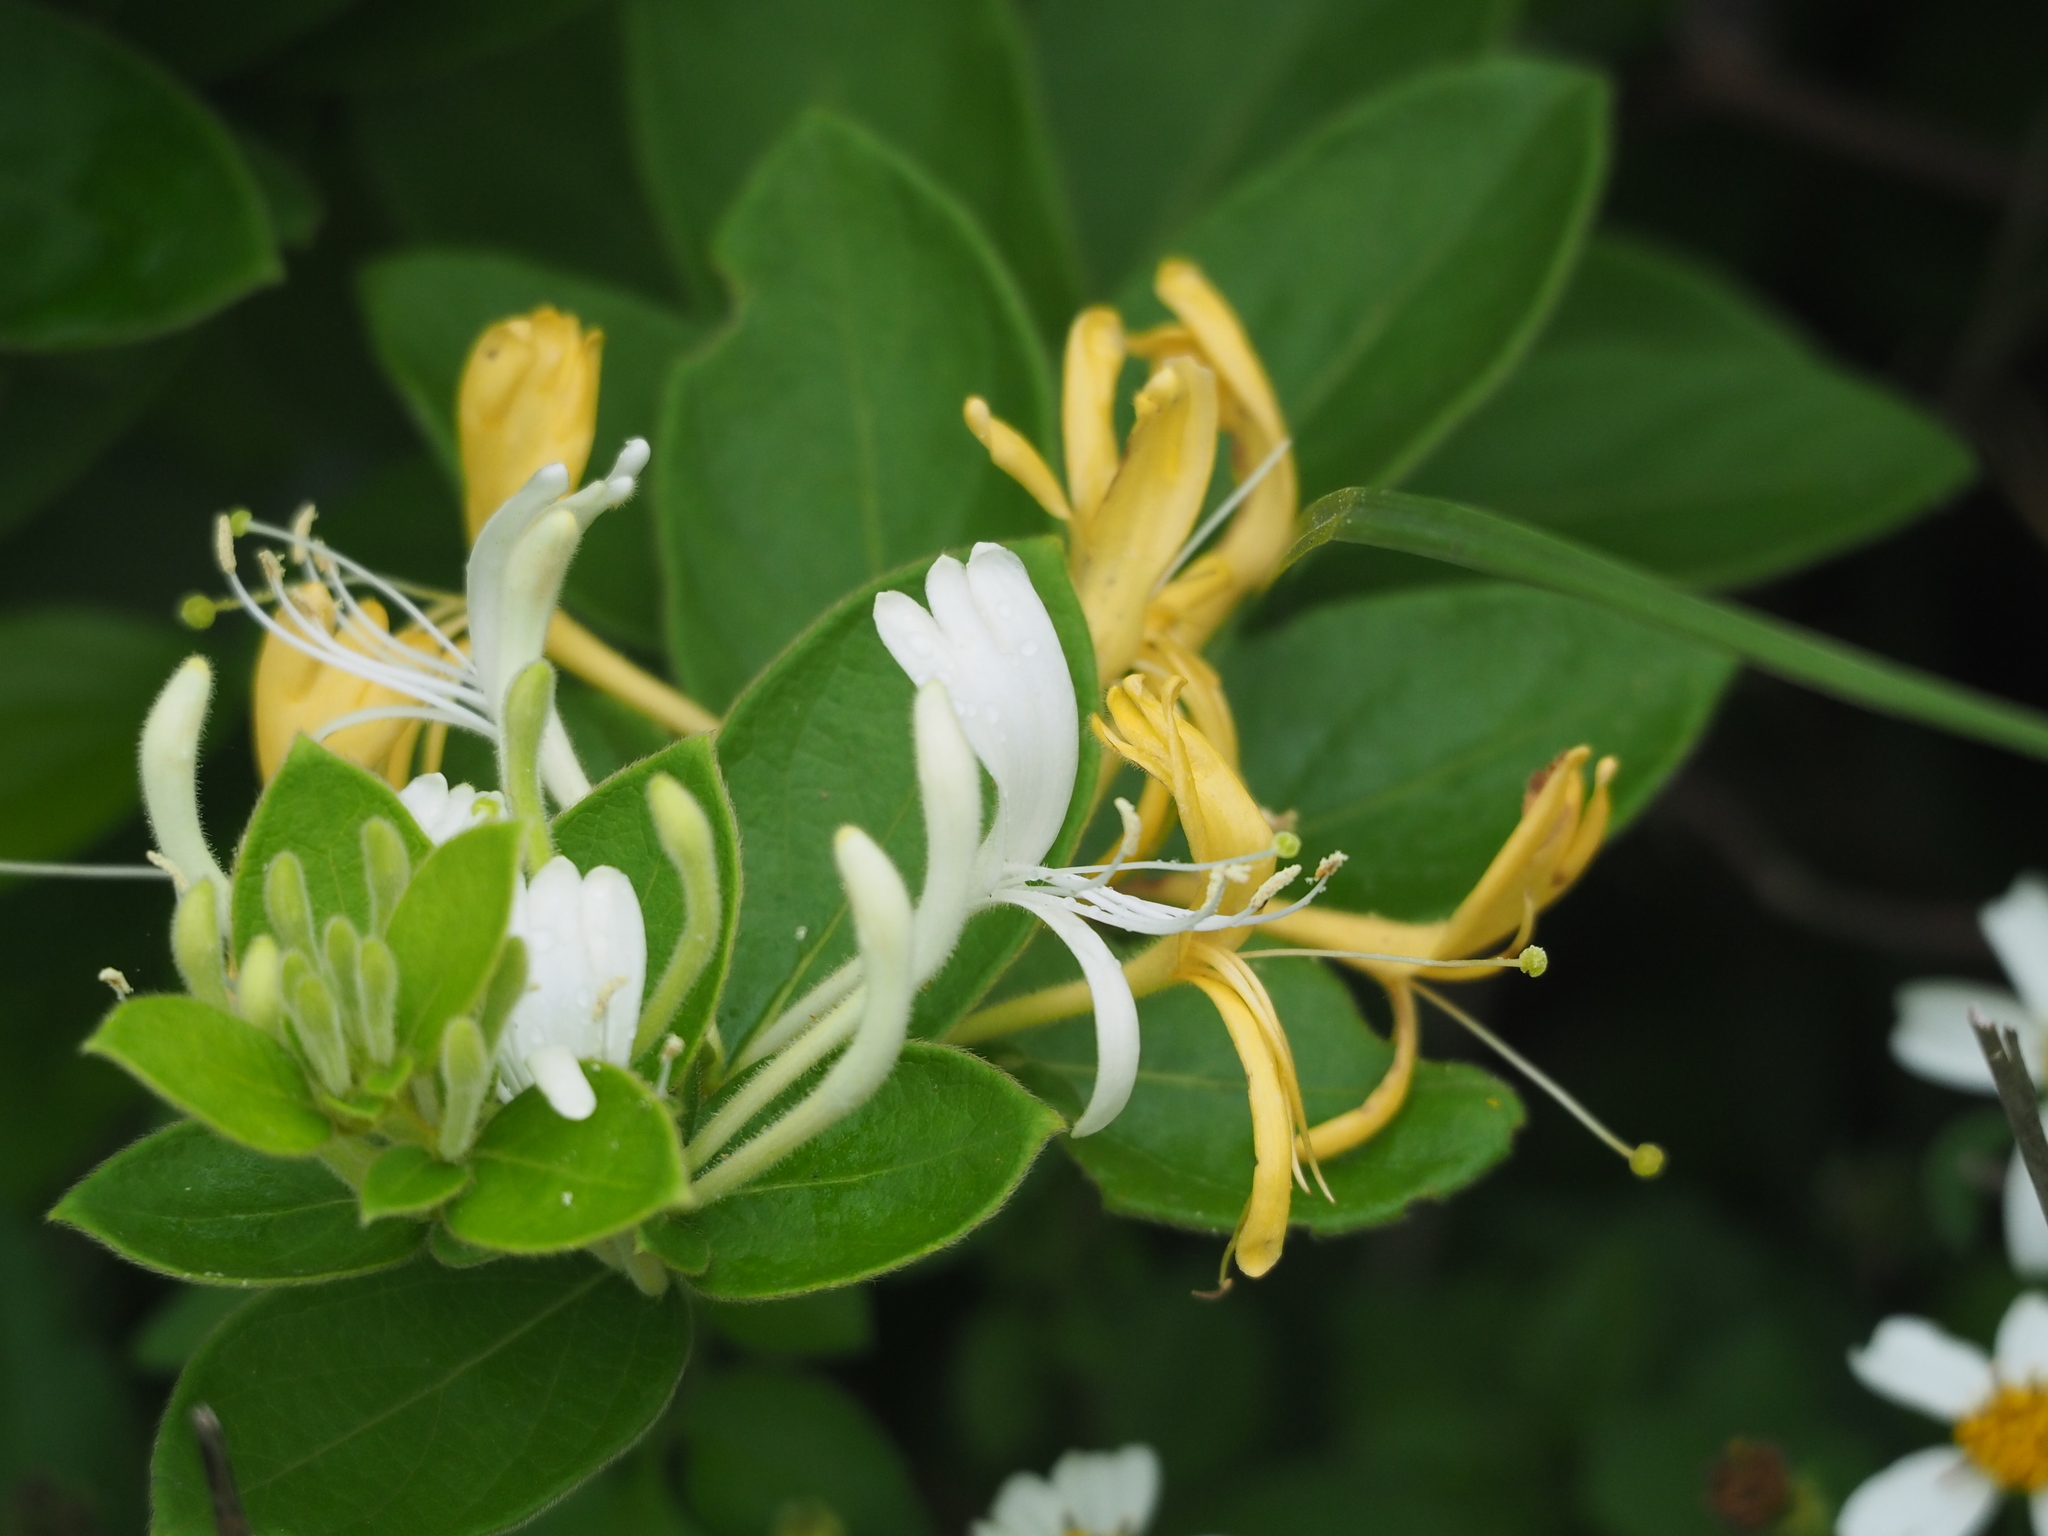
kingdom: Plantae
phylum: Tracheophyta
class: Magnoliopsida
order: Dipsacales
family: Caprifoliaceae
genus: Lonicera
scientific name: Lonicera japonica
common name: Japanese honeysuckle
